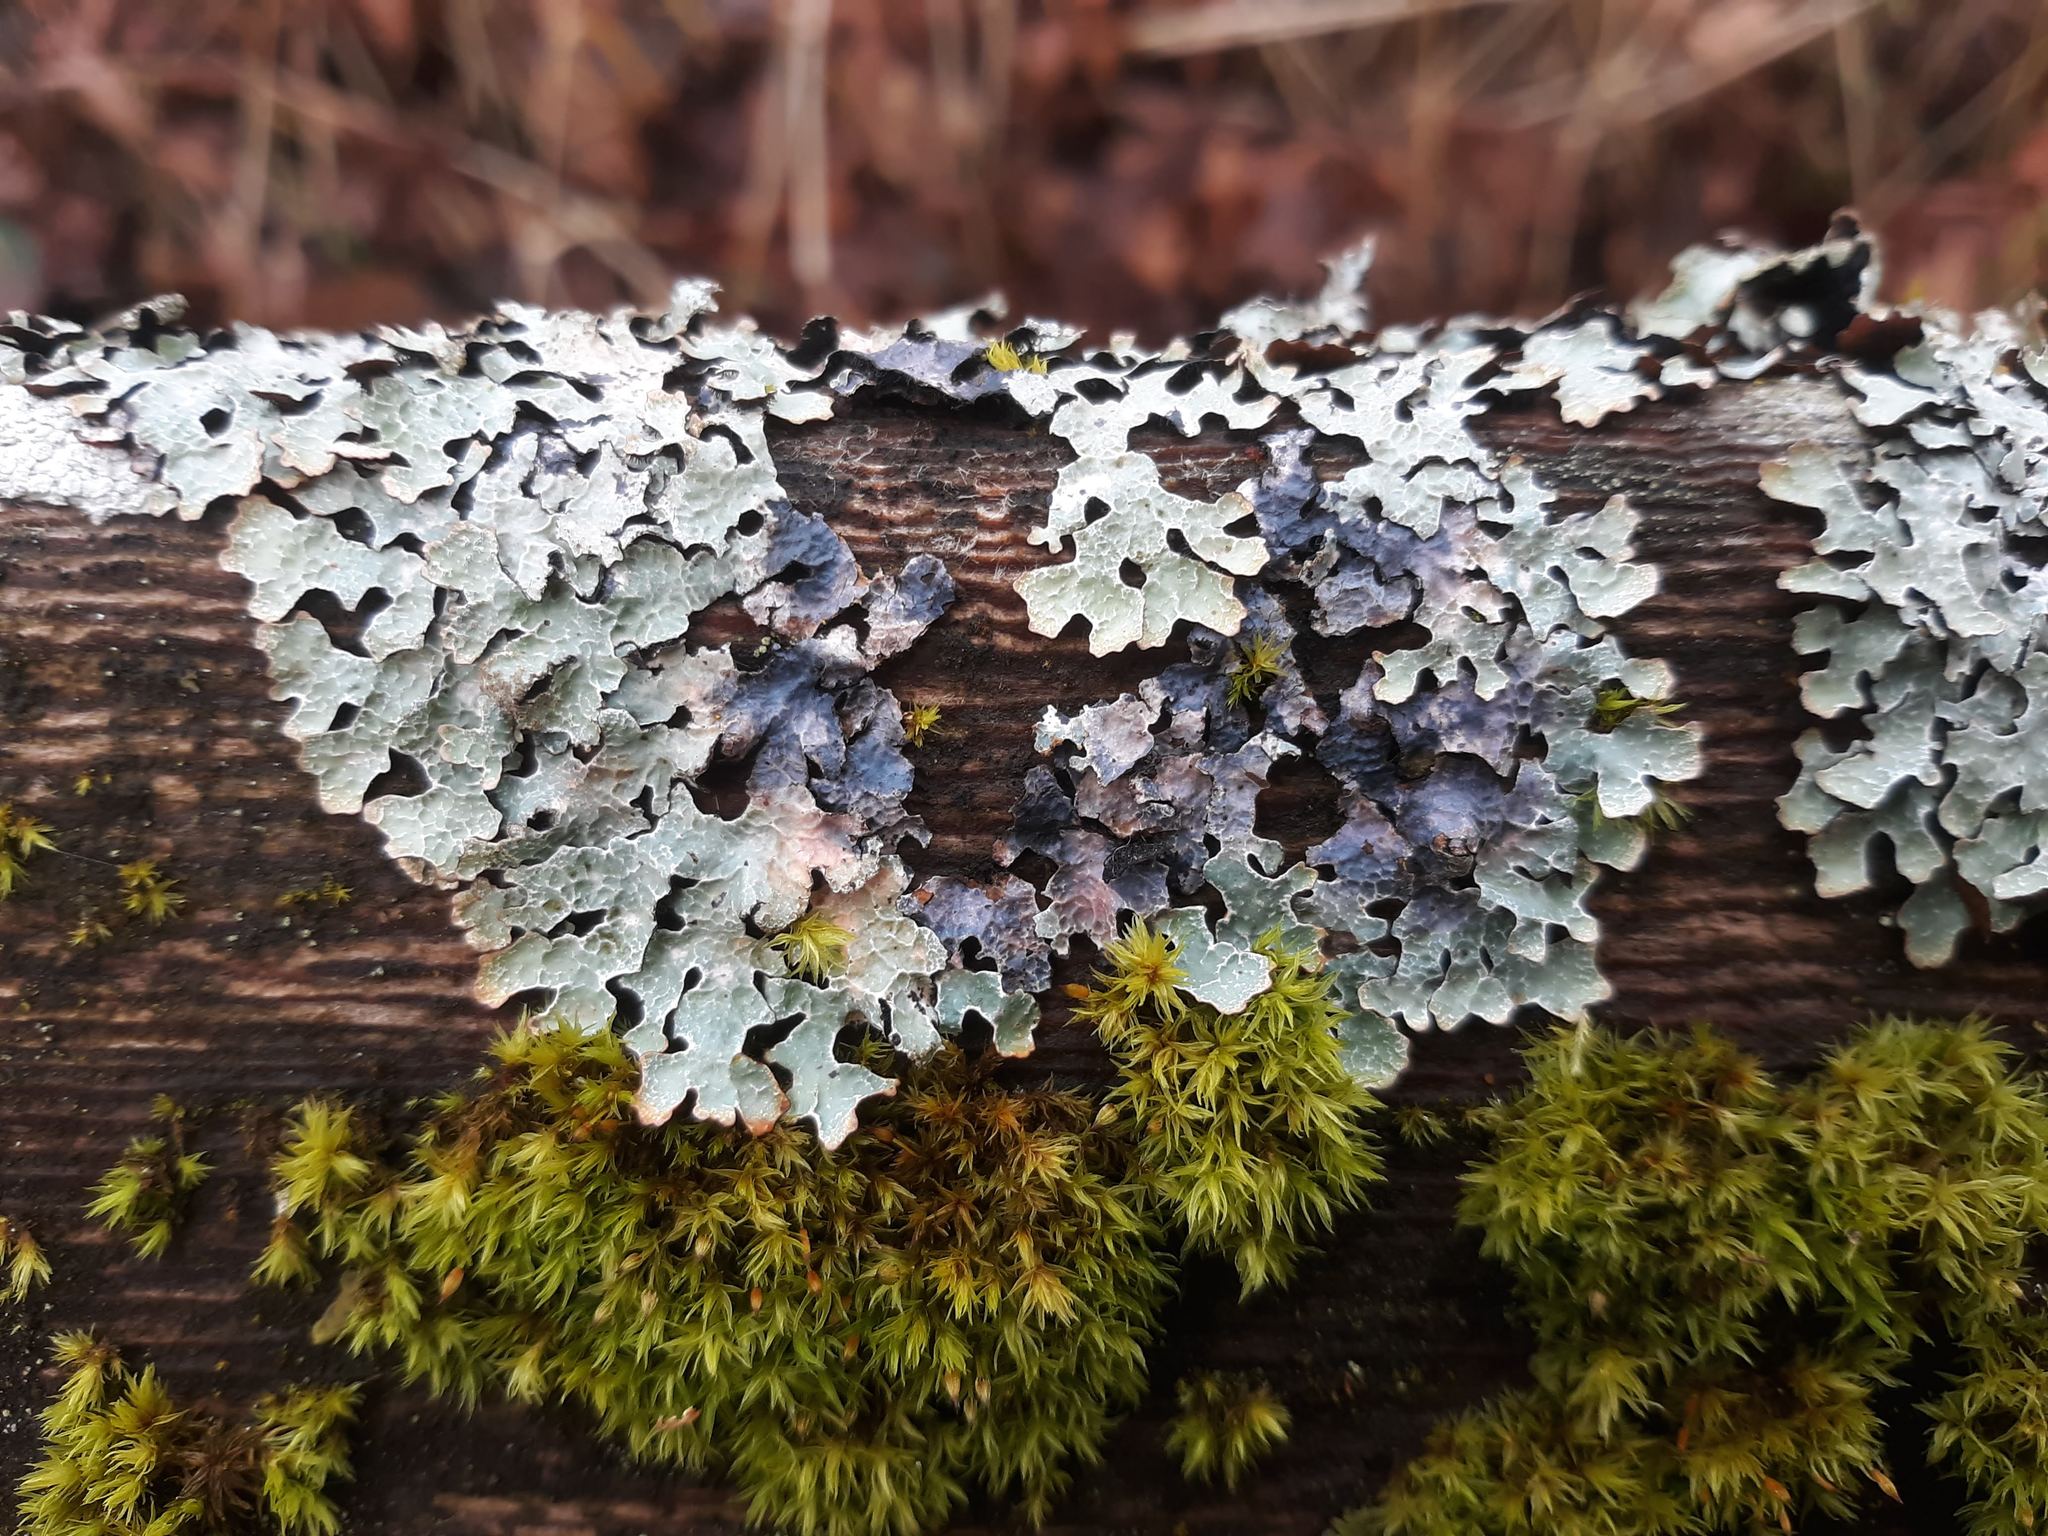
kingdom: Fungi
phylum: Ascomycota
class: Lecanoromycetes
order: Lecanorales
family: Parmeliaceae
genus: Parmelia
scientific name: Parmelia sulcata
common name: Netted shield lichen
